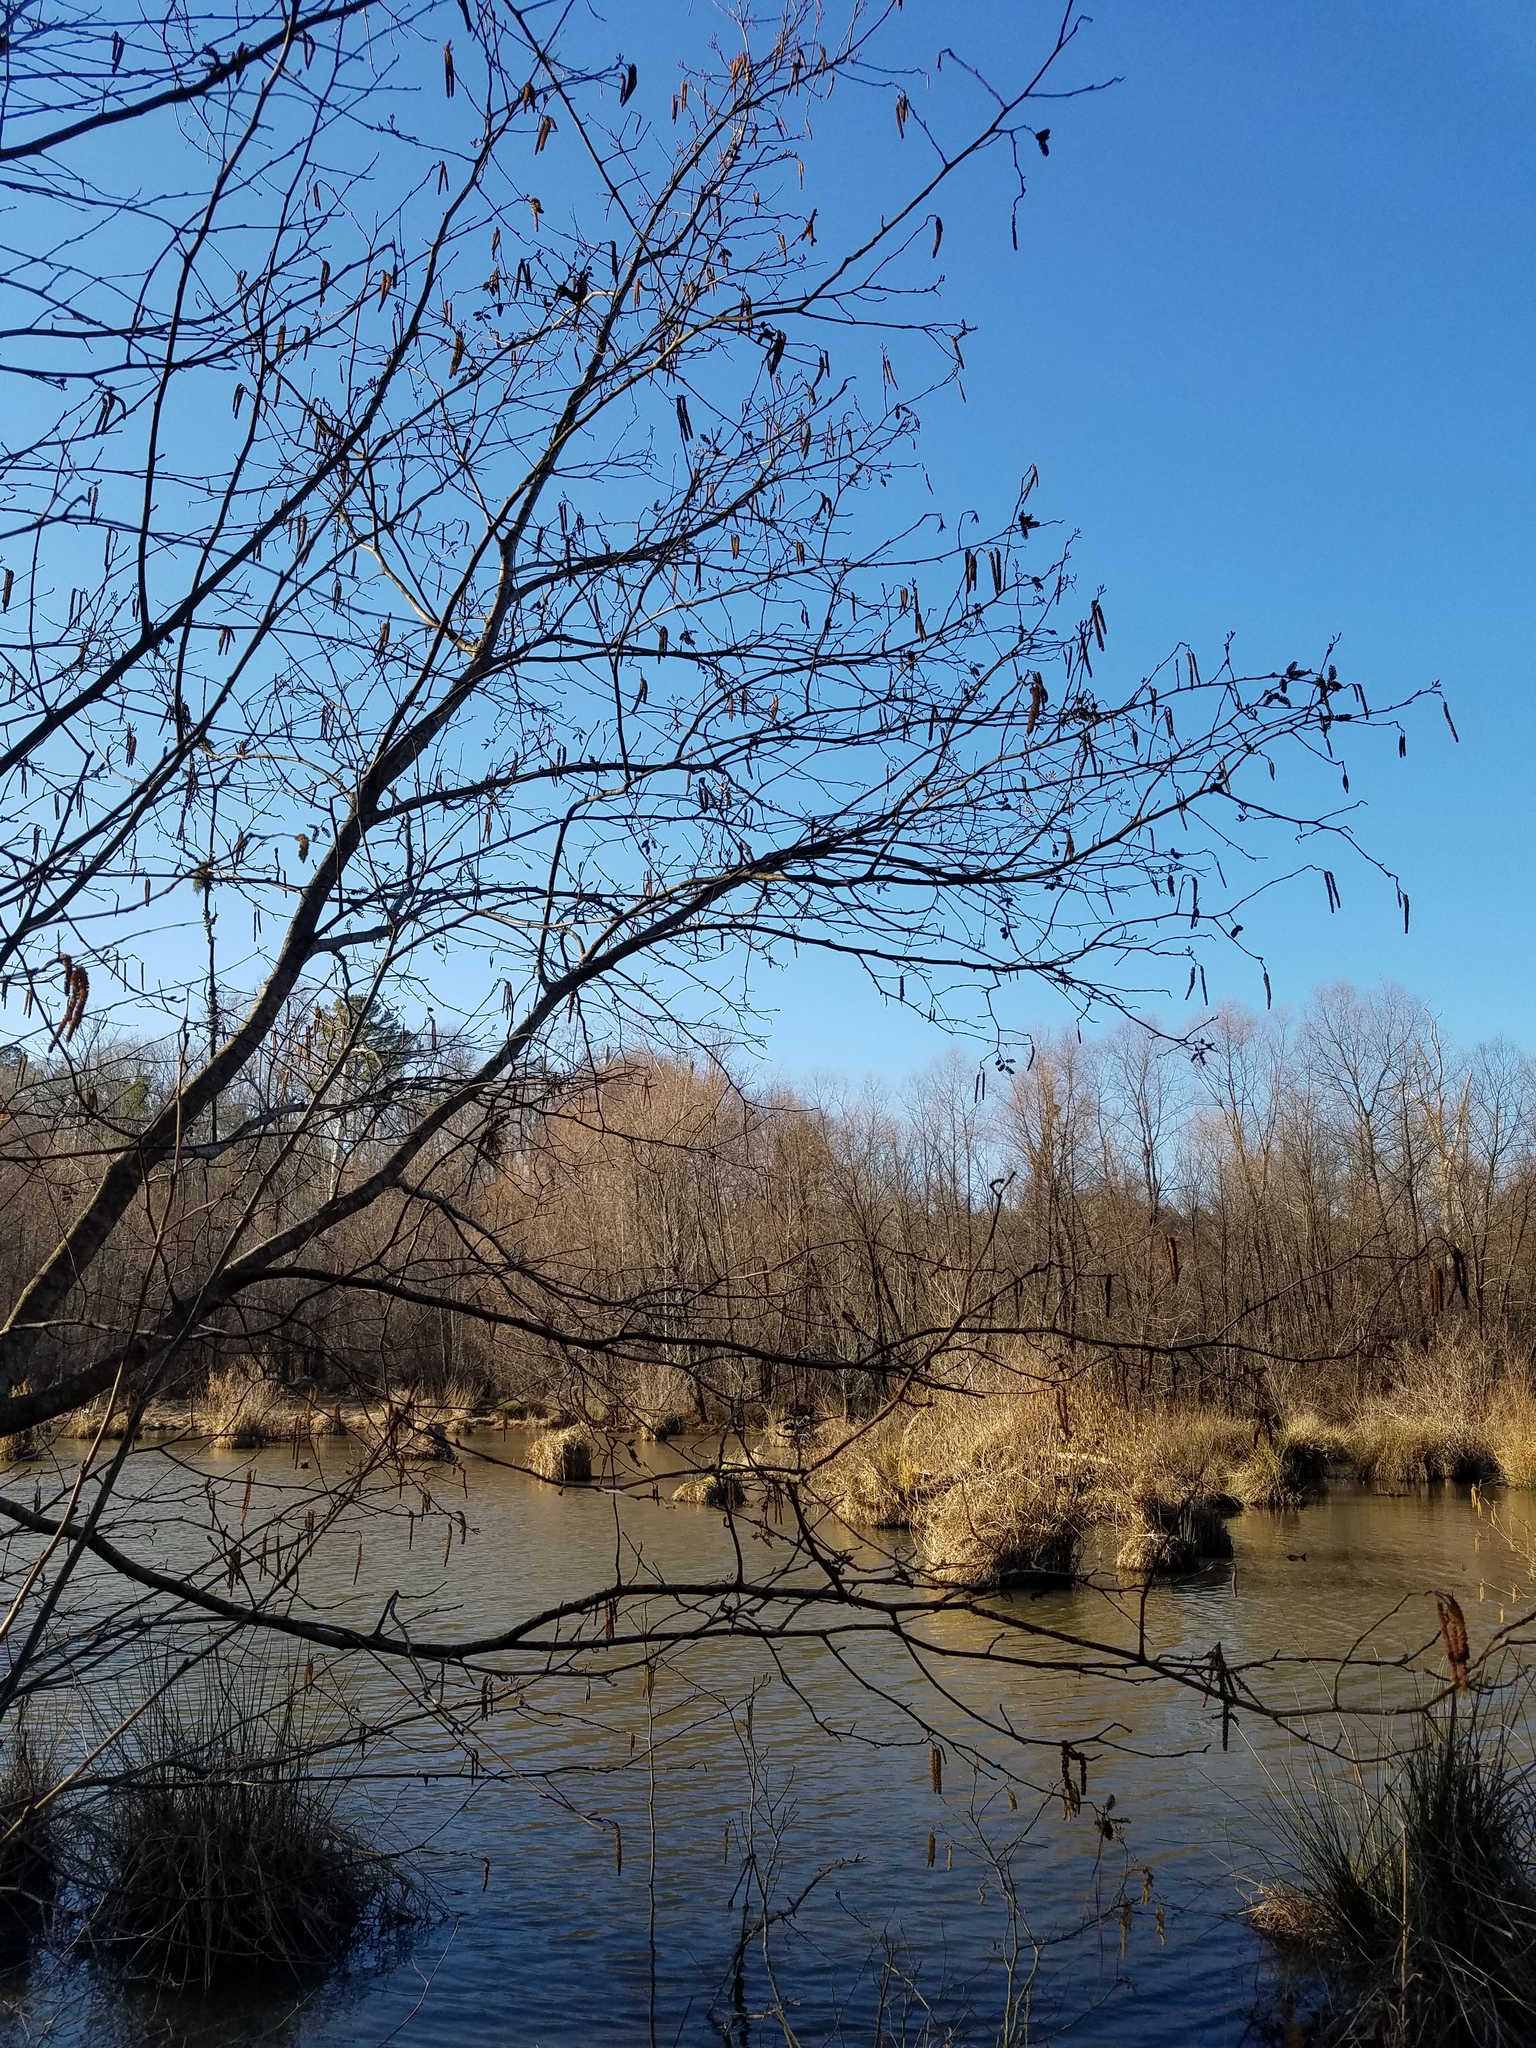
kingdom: Plantae
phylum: Tracheophyta
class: Magnoliopsida
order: Fagales
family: Betulaceae
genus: Alnus
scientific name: Alnus serrulata
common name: Hazel alder
